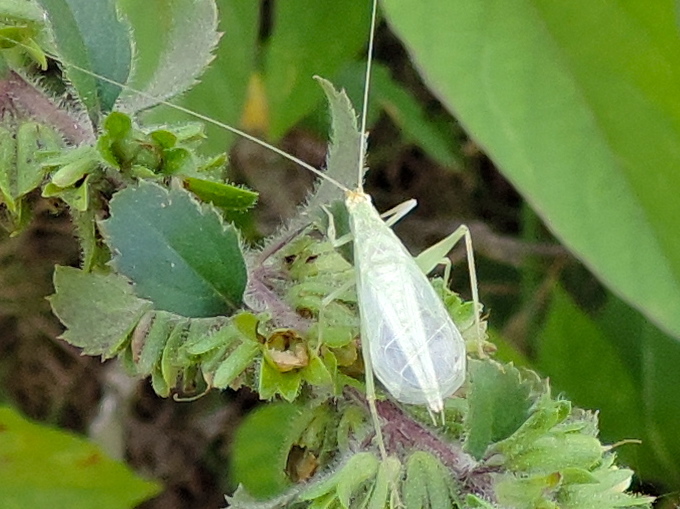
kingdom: Animalia
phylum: Arthropoda
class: Insecta
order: Orthoptera
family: Gryllidae
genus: Oecanthus
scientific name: Oecanthus
